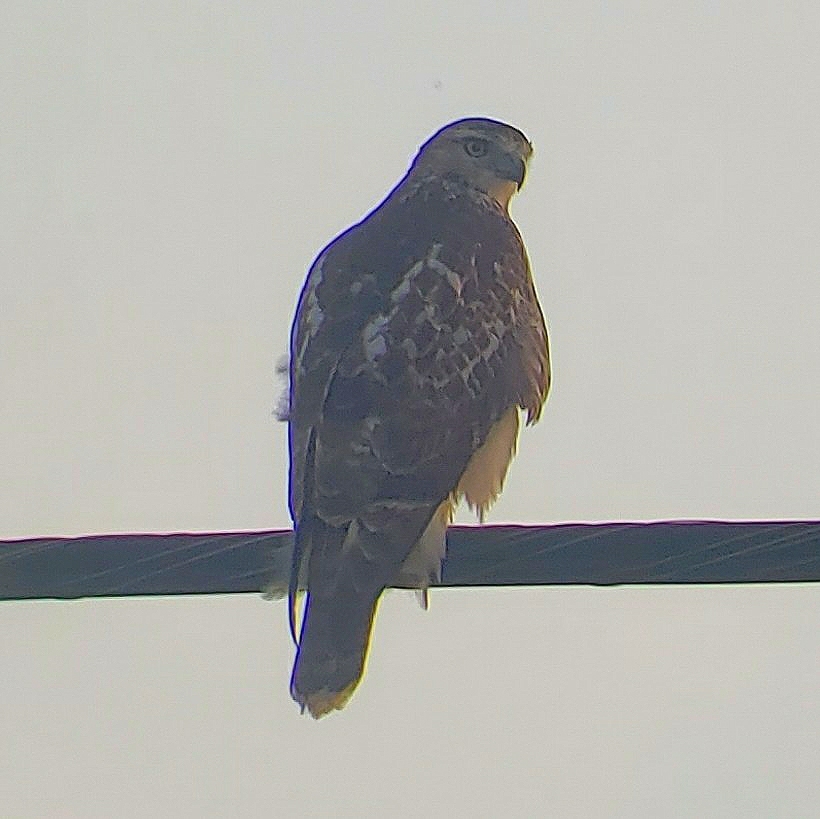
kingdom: Animalia
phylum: Chordata
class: Aves
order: Accipitriformes
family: Accipitridae
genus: Buteo
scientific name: Buteo jamaicensis
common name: Red-tailed hawk
